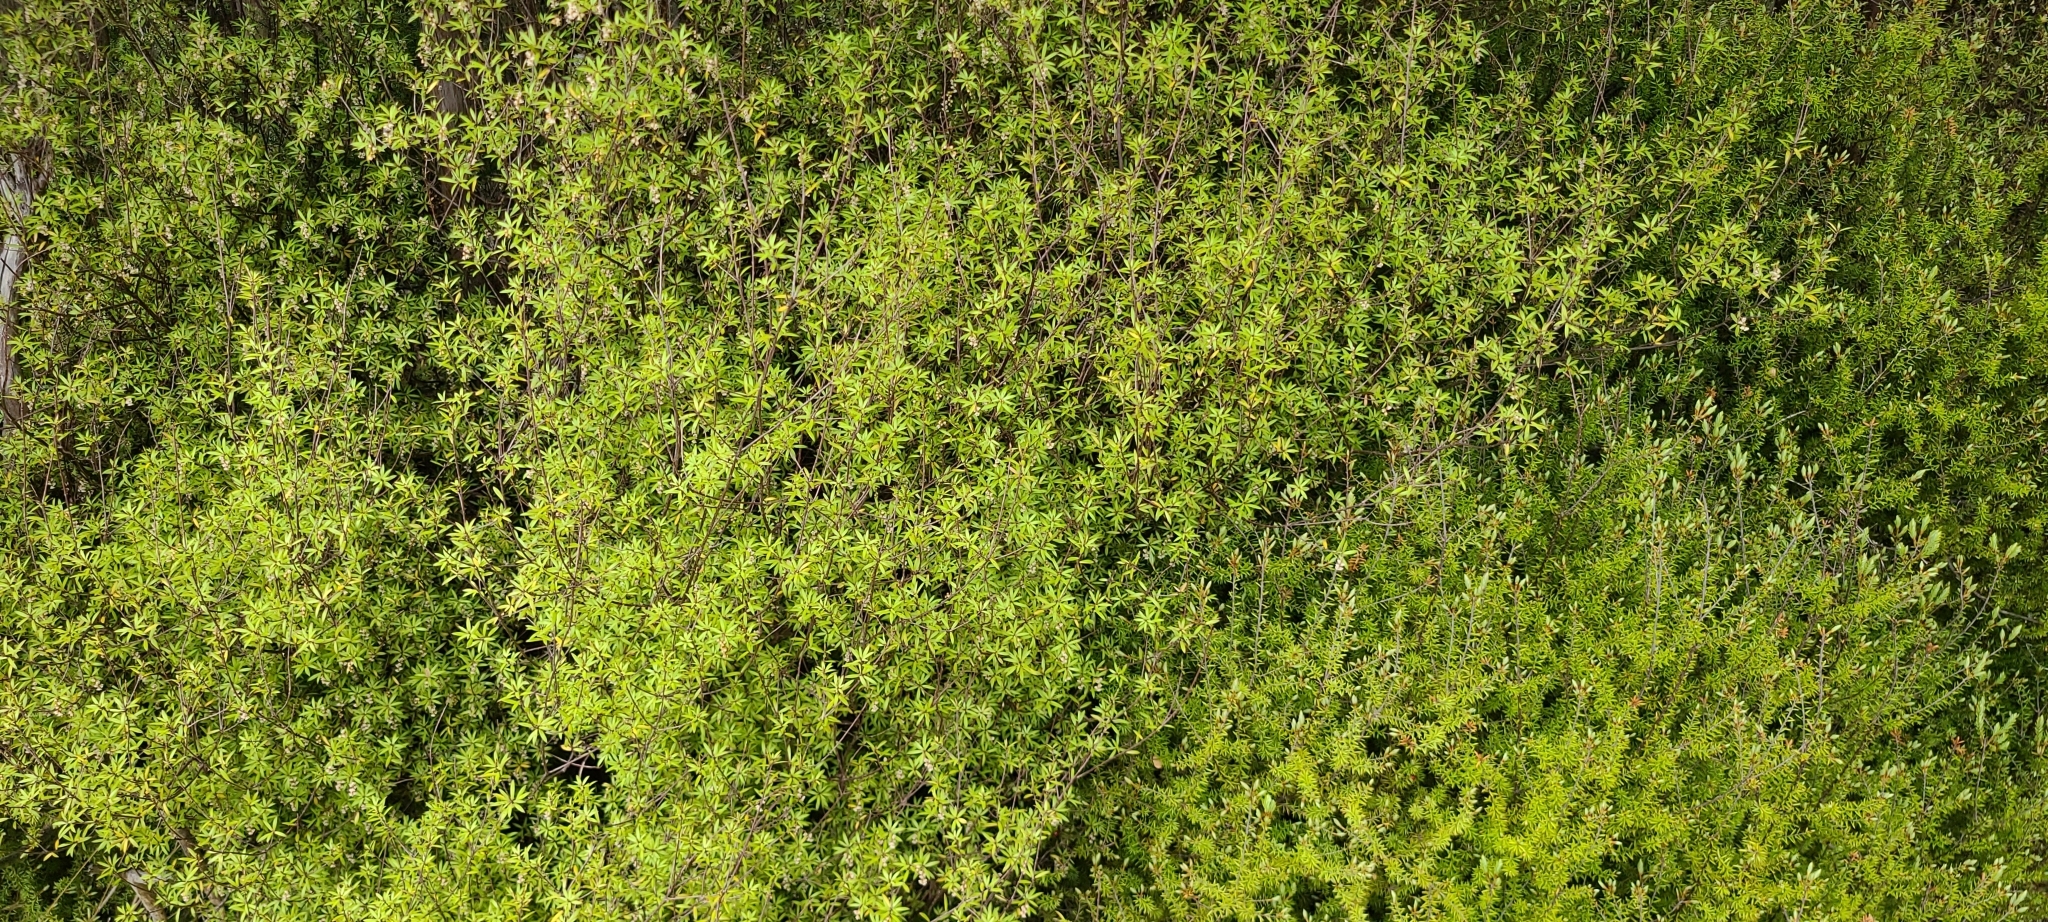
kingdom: Plantae
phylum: Tracheophyta
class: Magnoliopsida
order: Ericales
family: Ericaceae
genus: Leucopogon
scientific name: Leucopogon fasciculatus
